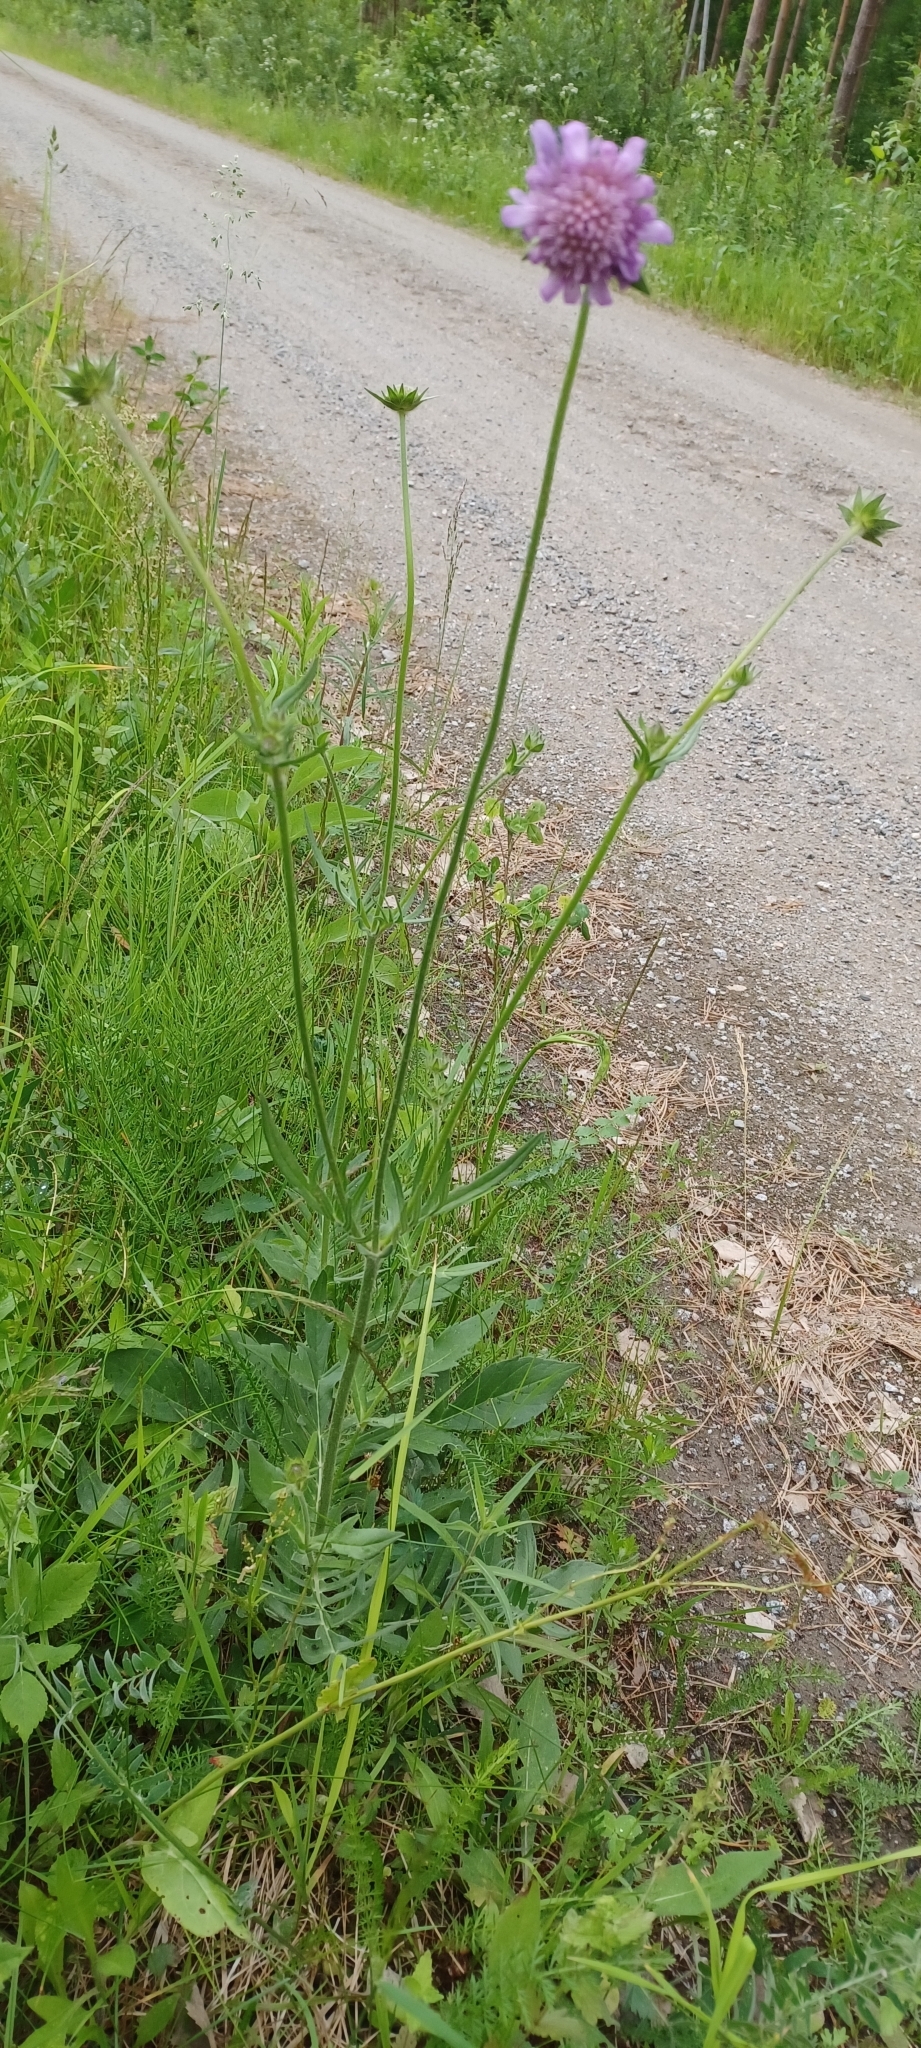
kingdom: Plantae
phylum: Tracheophyta
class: Magnoliopsida
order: Dipsacales
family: Caprifoliaceae
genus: Knautia
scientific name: Knautia arvensis
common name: Field scabiosa
